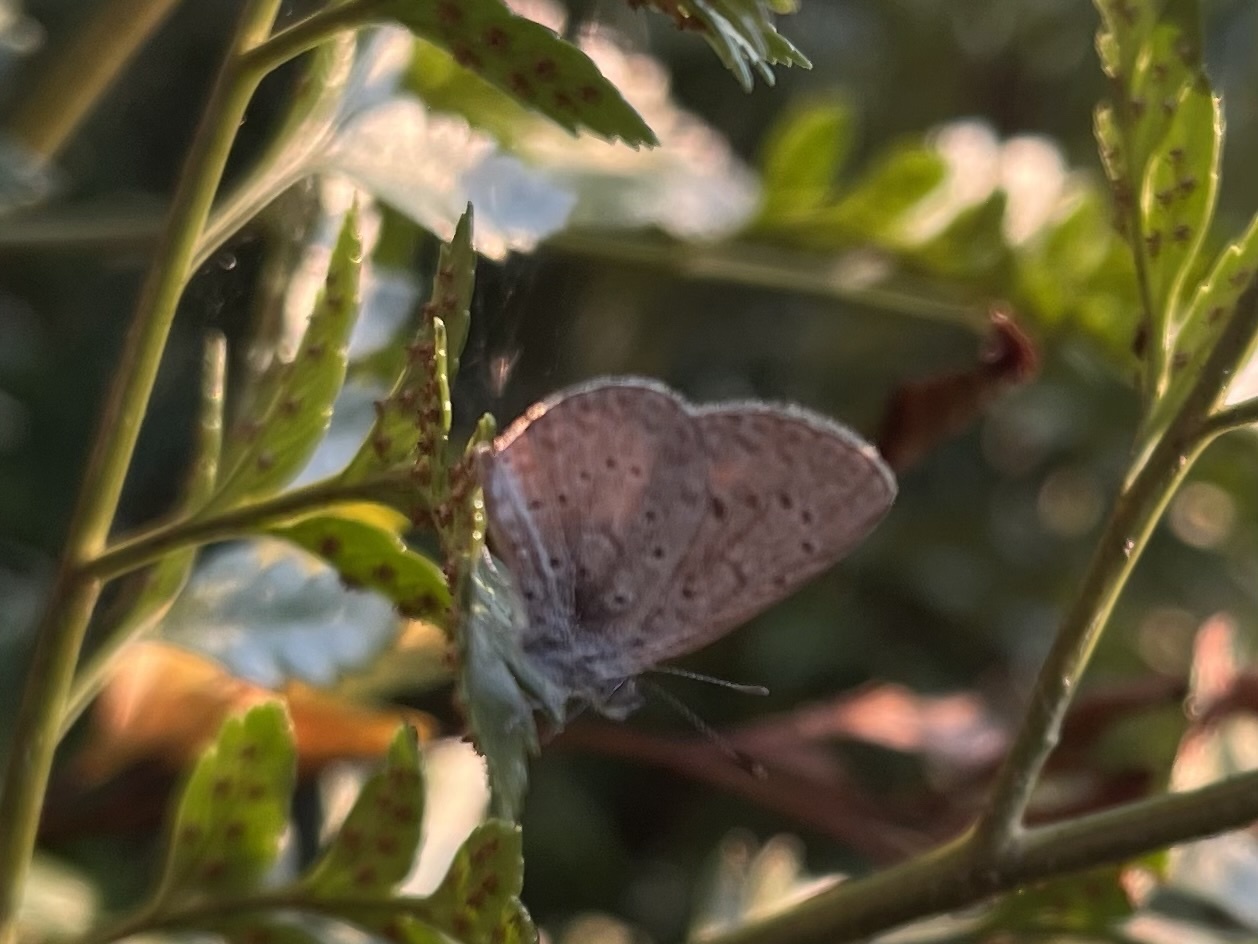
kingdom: Animalia
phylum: Arthropoda
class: Insecta
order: Lepidoptera
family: Lycaenidae
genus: Zizeeria
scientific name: Zizeeria knysna
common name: African grass blue
